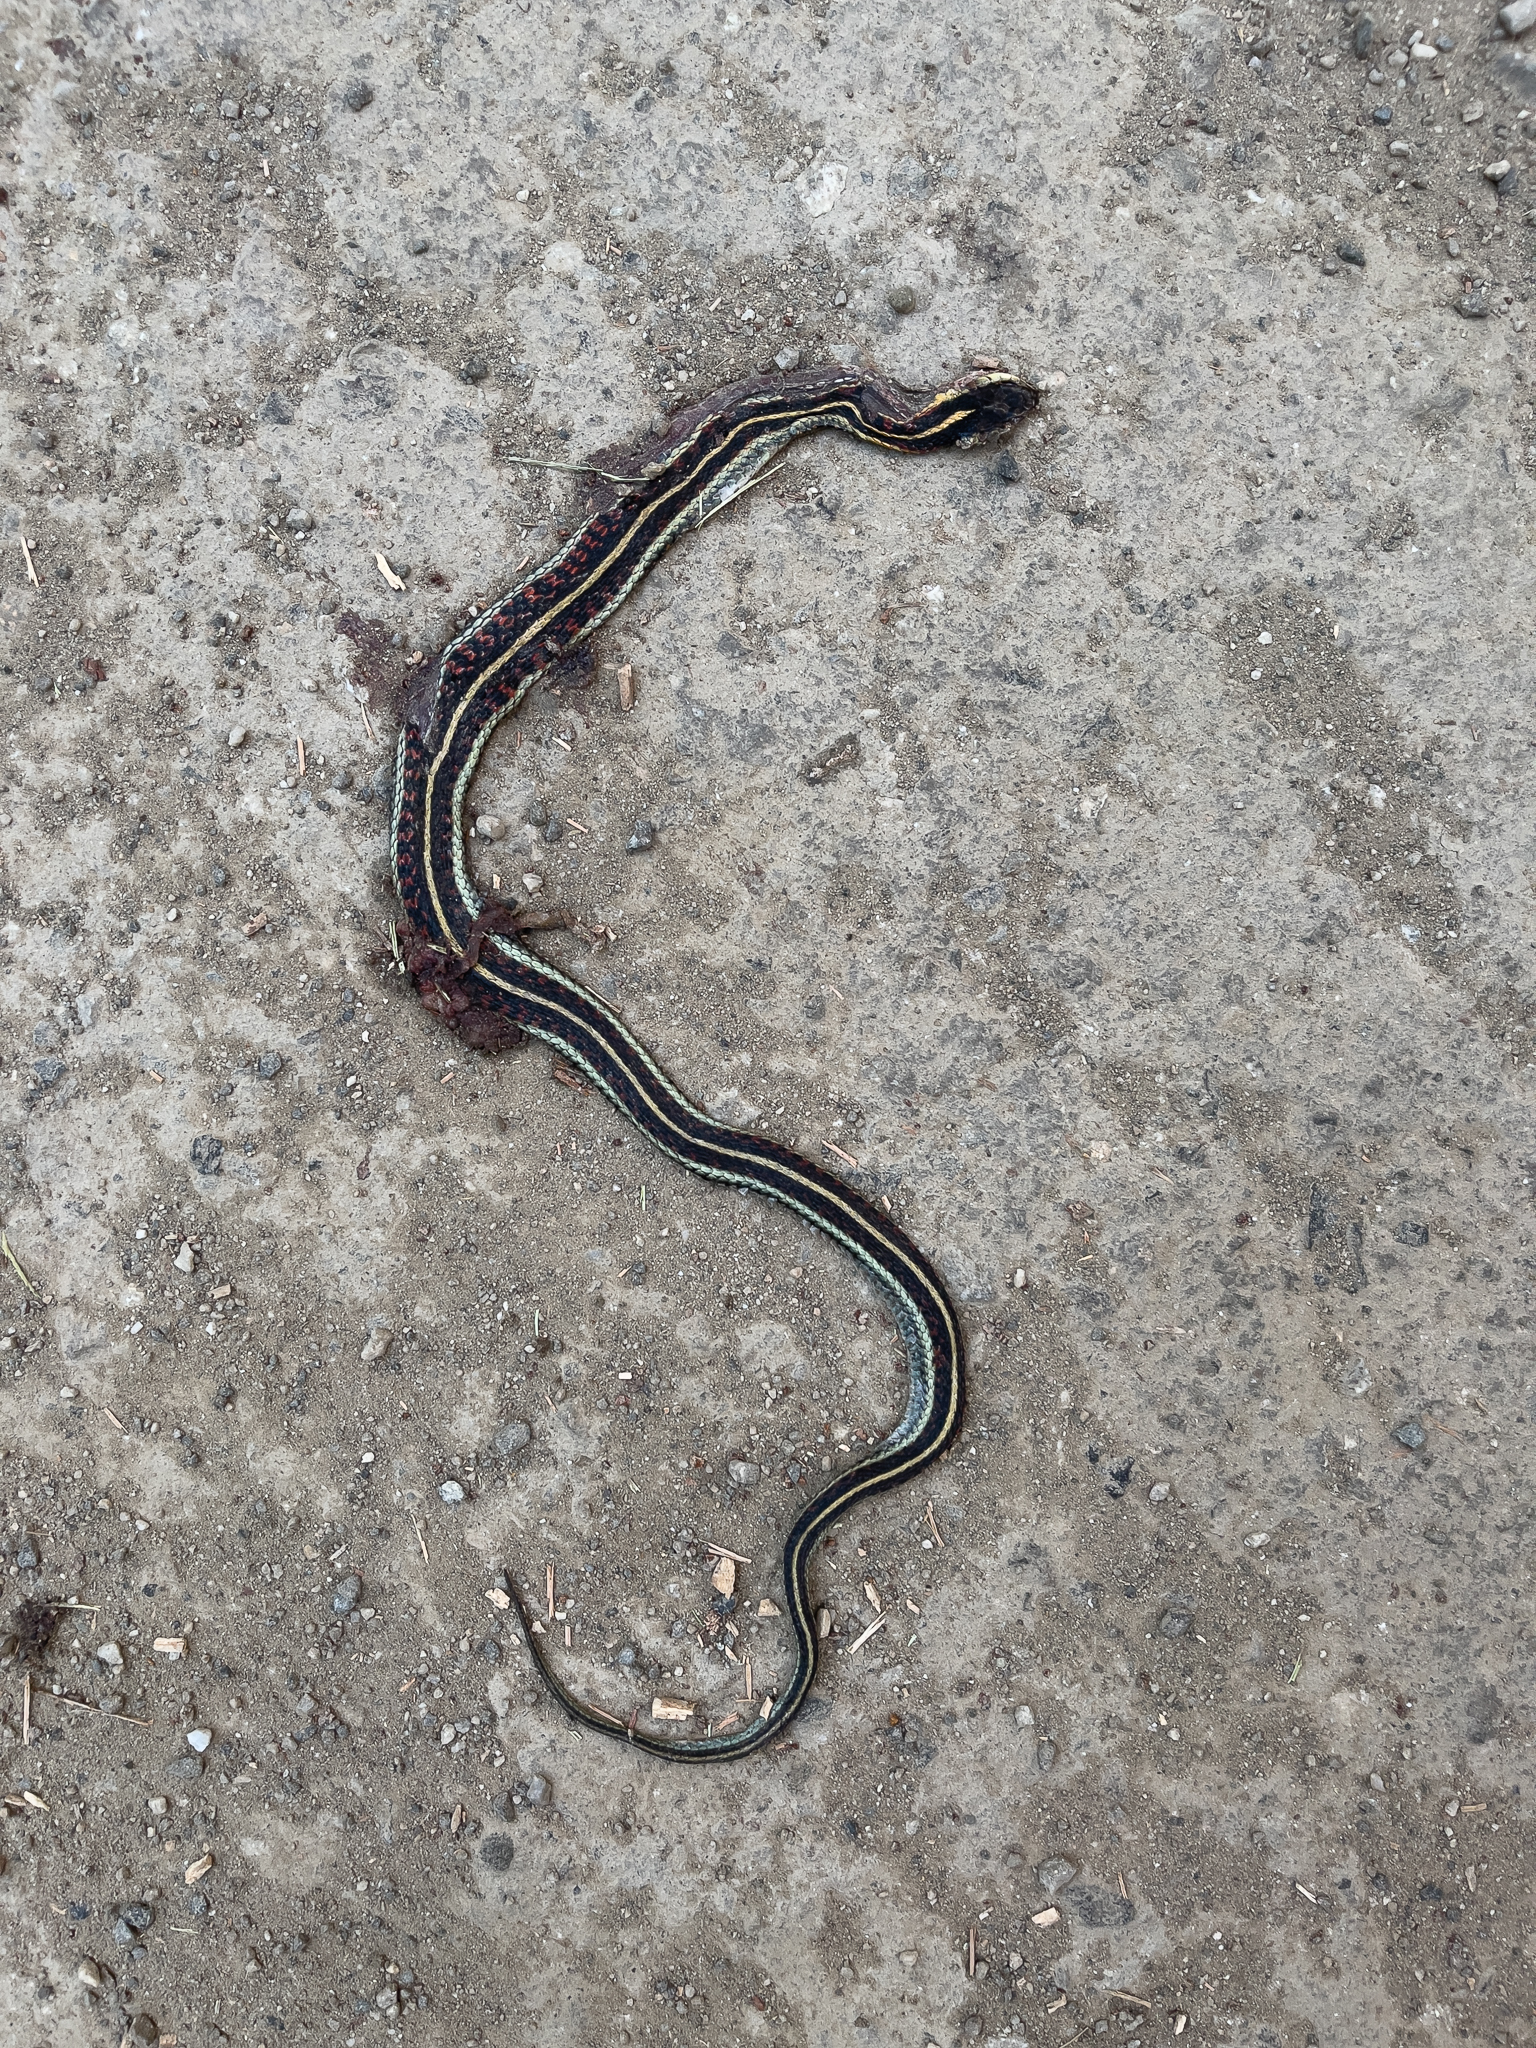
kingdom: Animalia
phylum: Chordata
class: Squamata
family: Colubridae
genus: Thamnophis
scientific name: Thamnophis sirtalis
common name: Common garter snake
